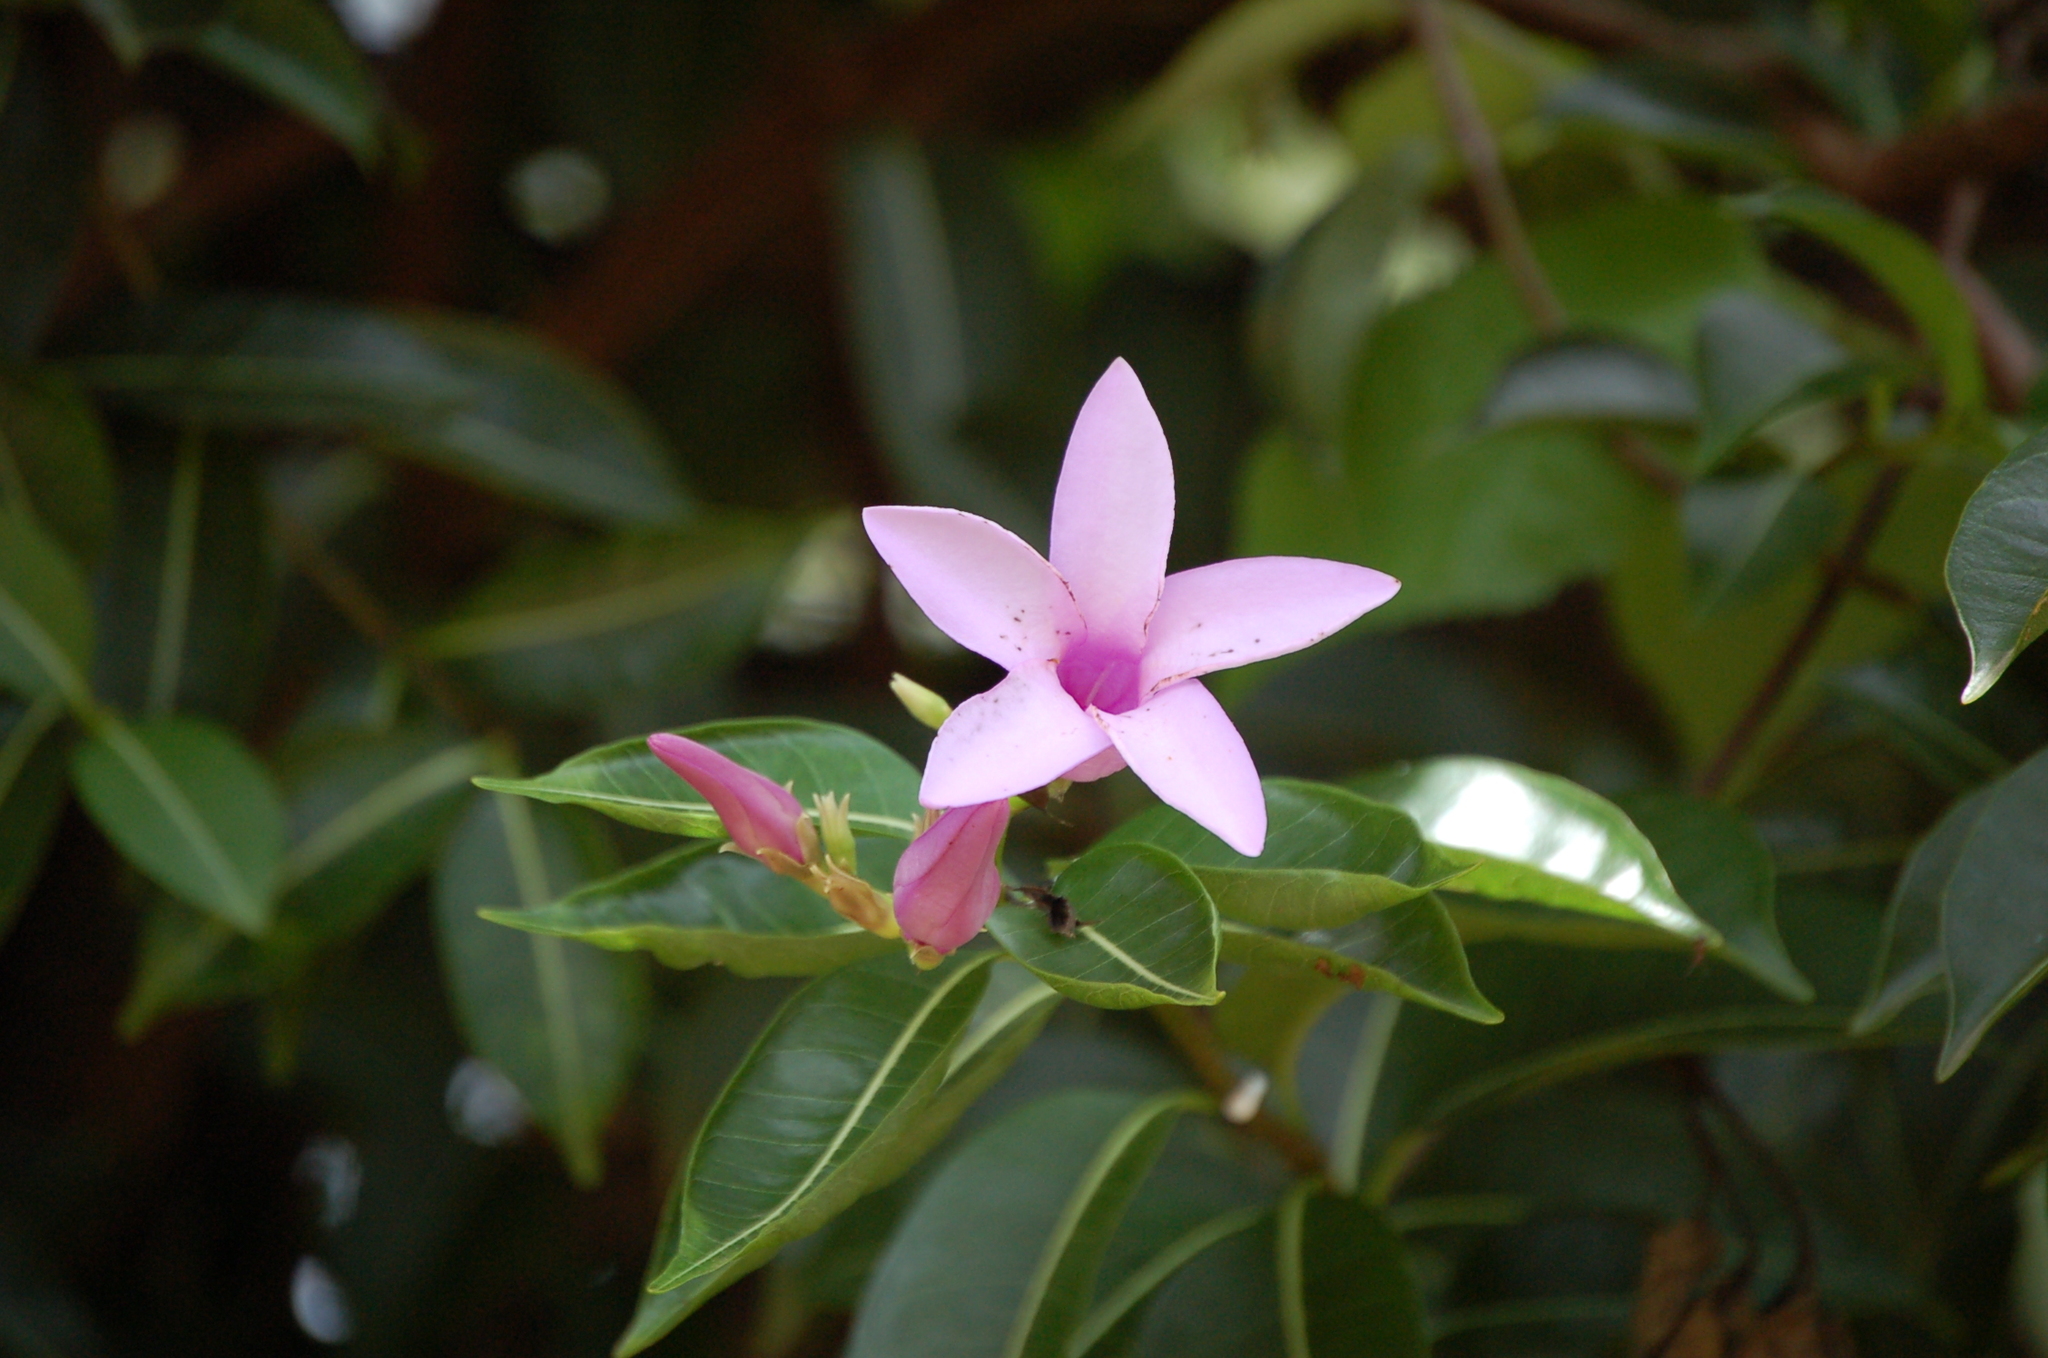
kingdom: Plantae
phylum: Tracheophyta
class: Magnoliopsida
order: Gentianales
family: Apocynaceae
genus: Cryptostegia
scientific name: Cryptostegia madagascariensis
